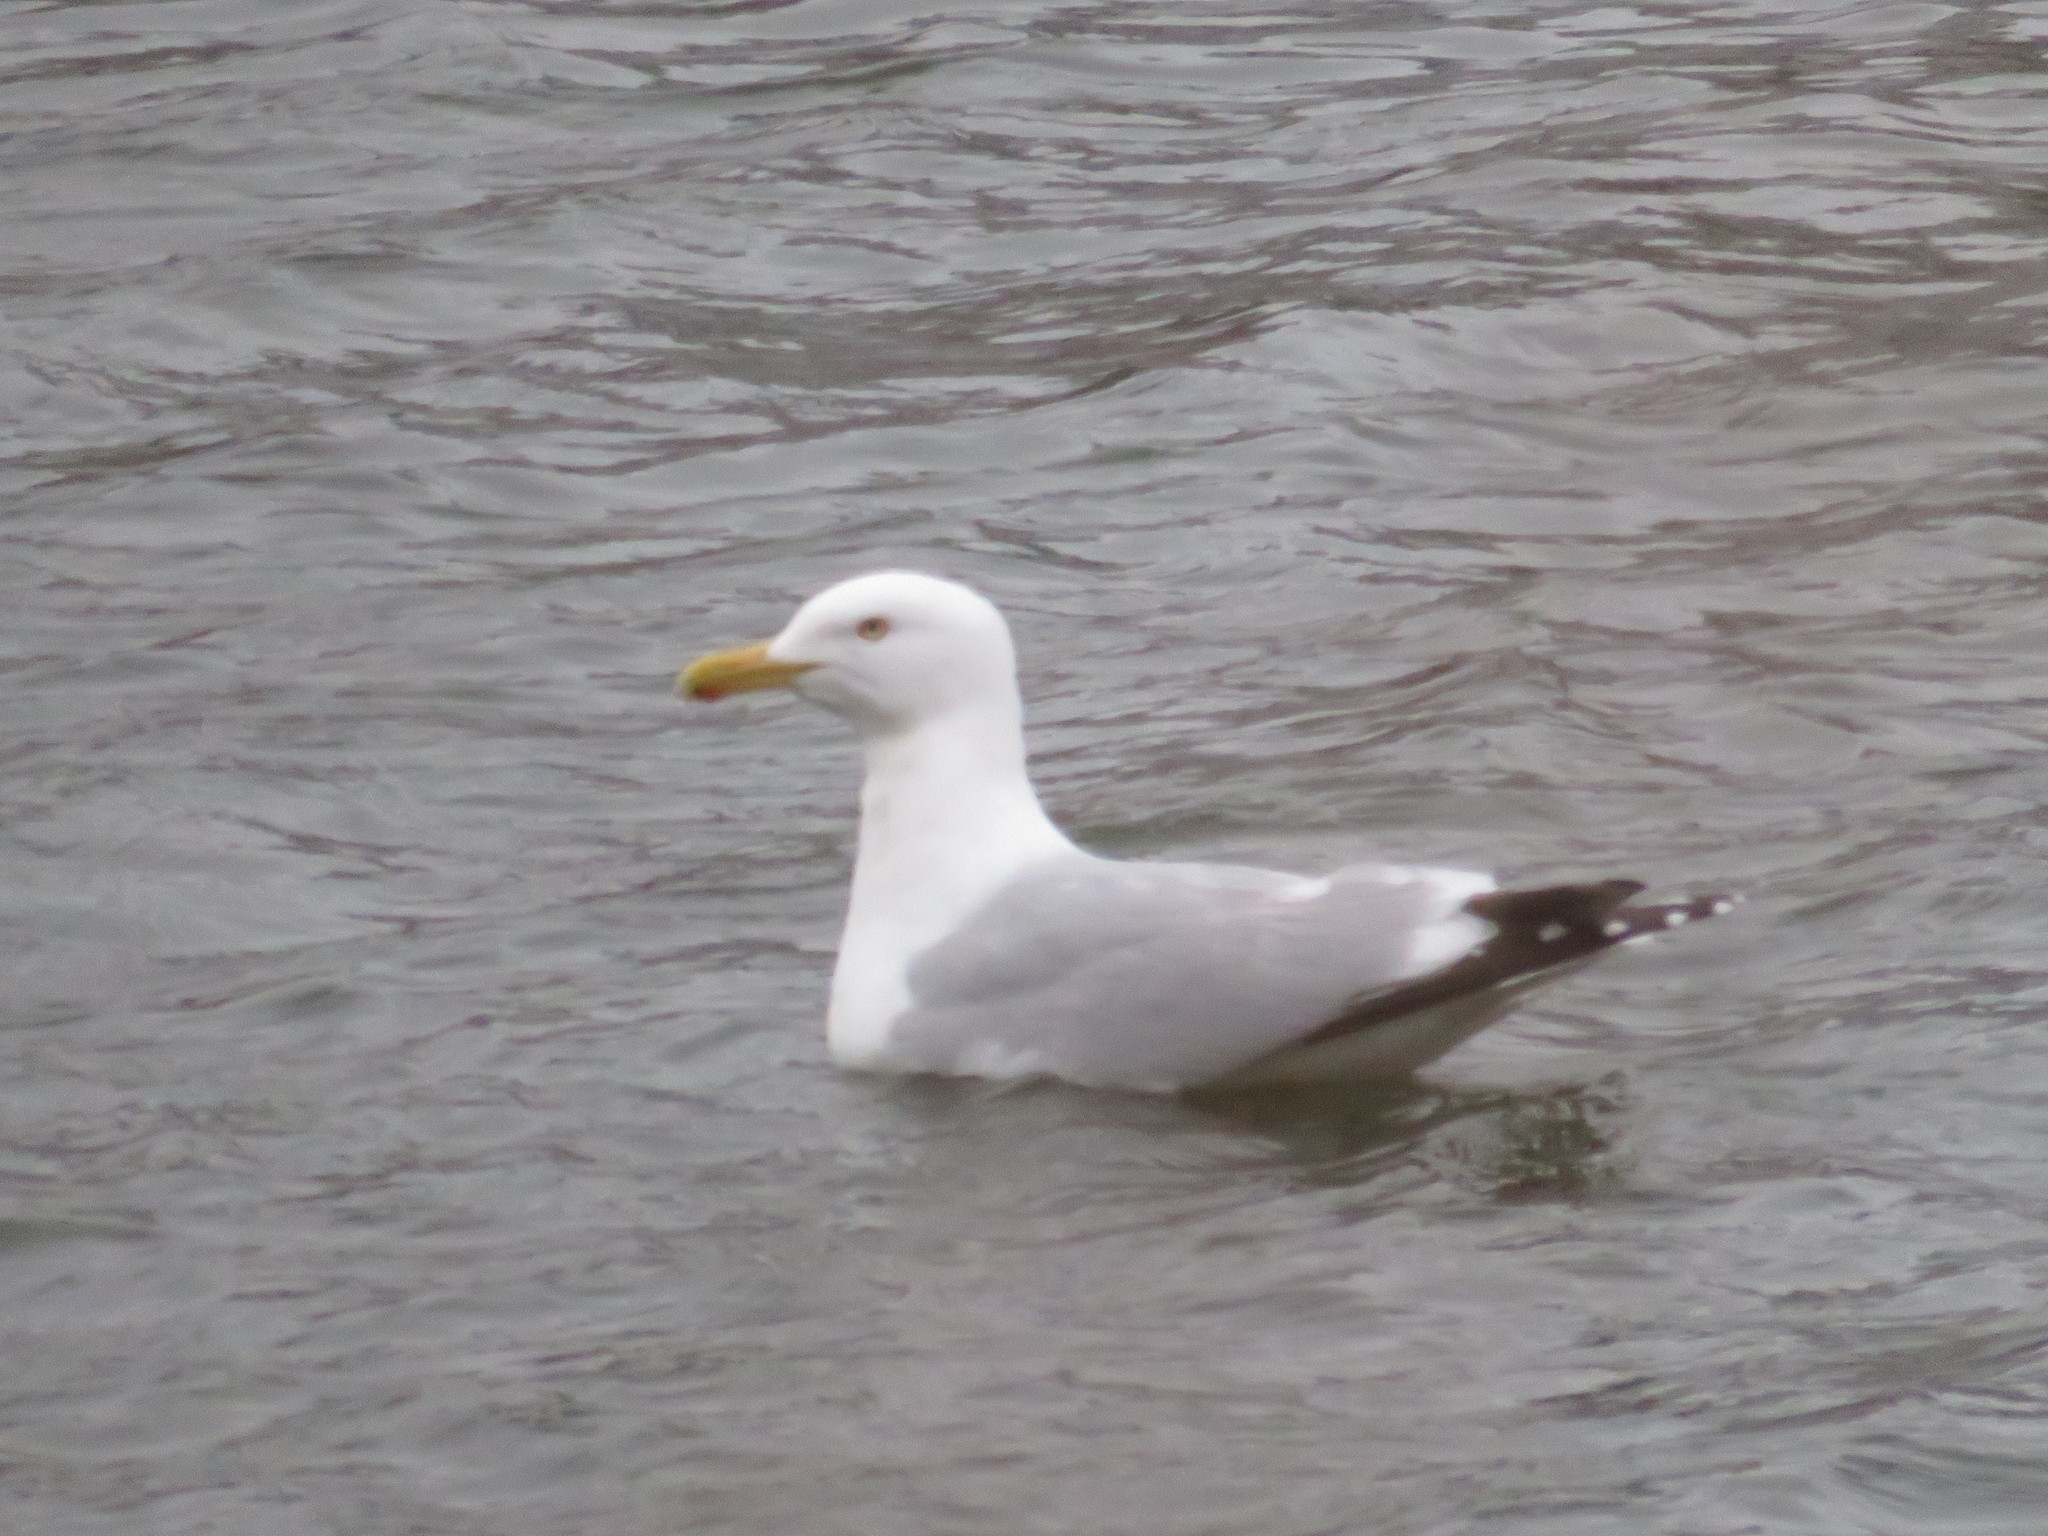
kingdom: Animalia
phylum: Chordata
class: Aves
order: Charadriiformes
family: Laridae
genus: Larus
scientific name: Larus argentatus
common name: Herring gull
